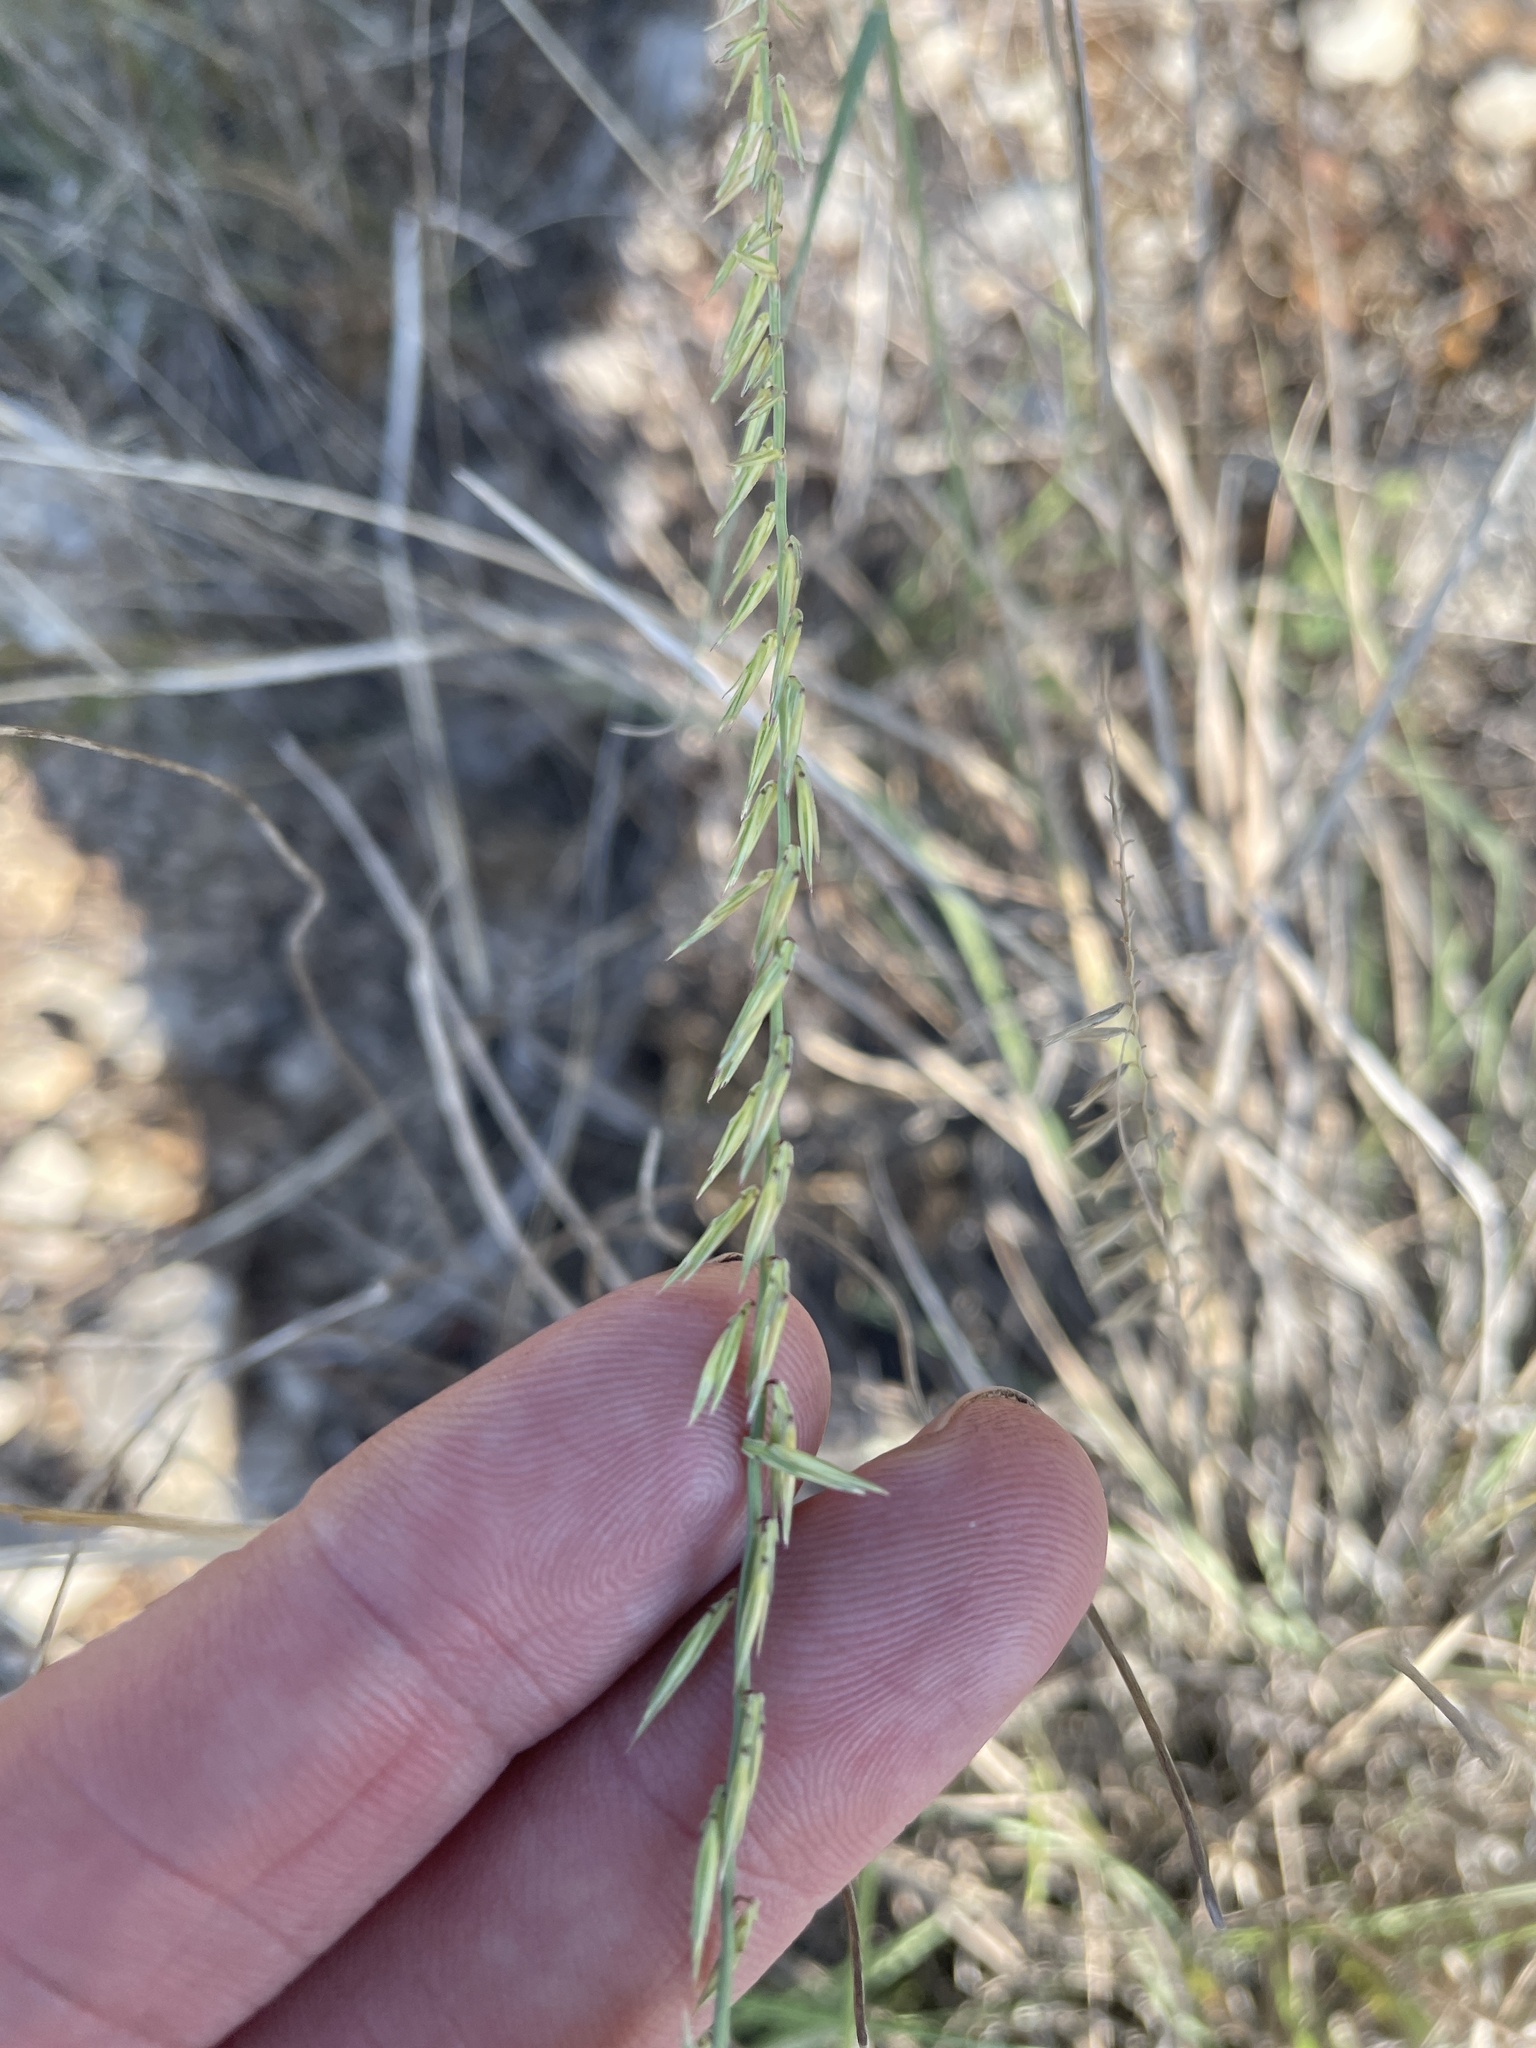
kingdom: Plantae
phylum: Tracheophyta
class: Liliopsida
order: Poales
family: Poaceae
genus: Bouteloua
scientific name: Bouteloua curtipendula
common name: Side-oats grama
